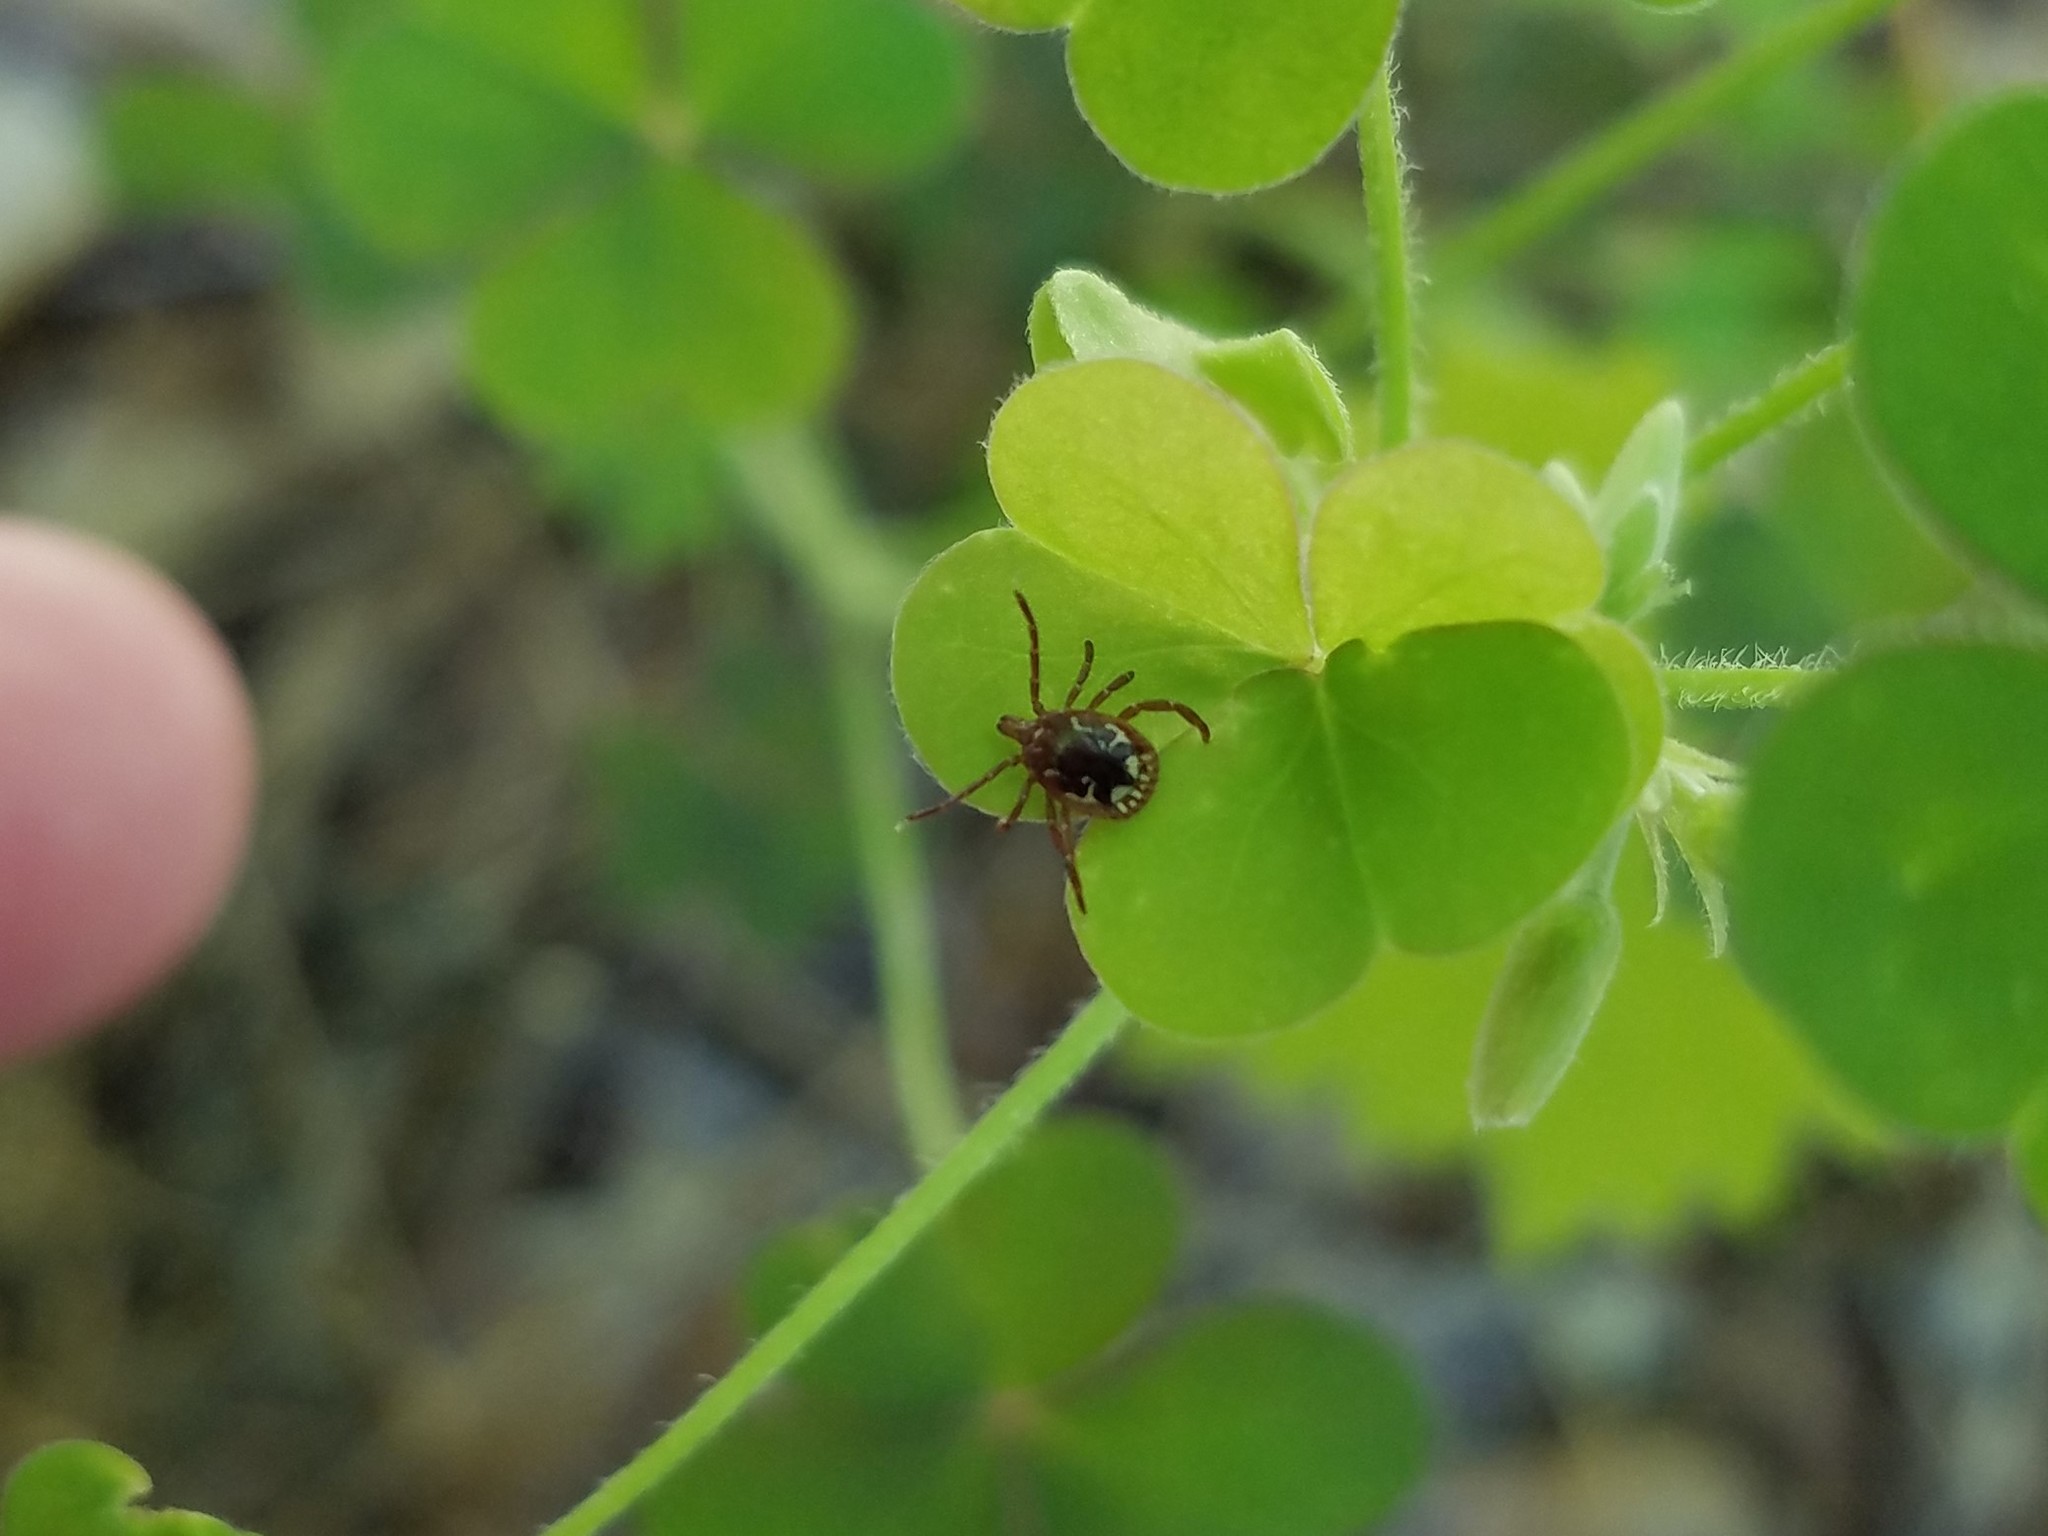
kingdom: Animalia
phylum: Arthropoda
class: Arachnida
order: Ixodida
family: Ixodidae
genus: Amblyomma
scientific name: Amblyomma americanum
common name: Lone star tick
